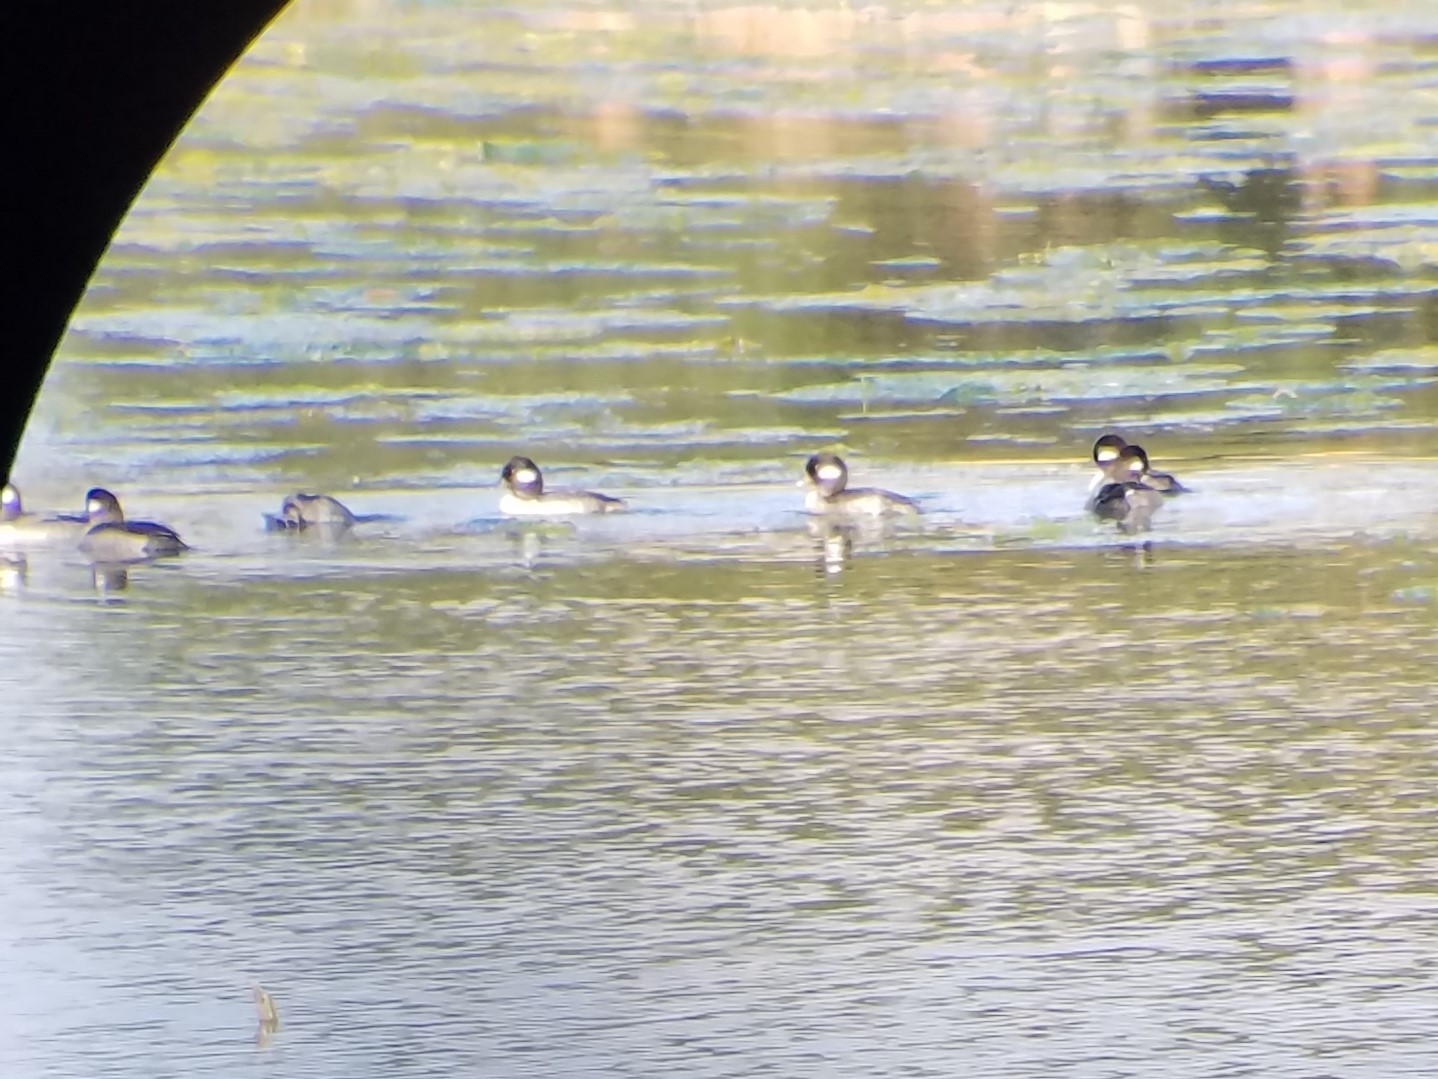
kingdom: Animalia
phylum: Chordata
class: Aves
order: Anseriformes
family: Anatidae
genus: Bucephala
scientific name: Bucephala albeola
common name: Bufflehead
